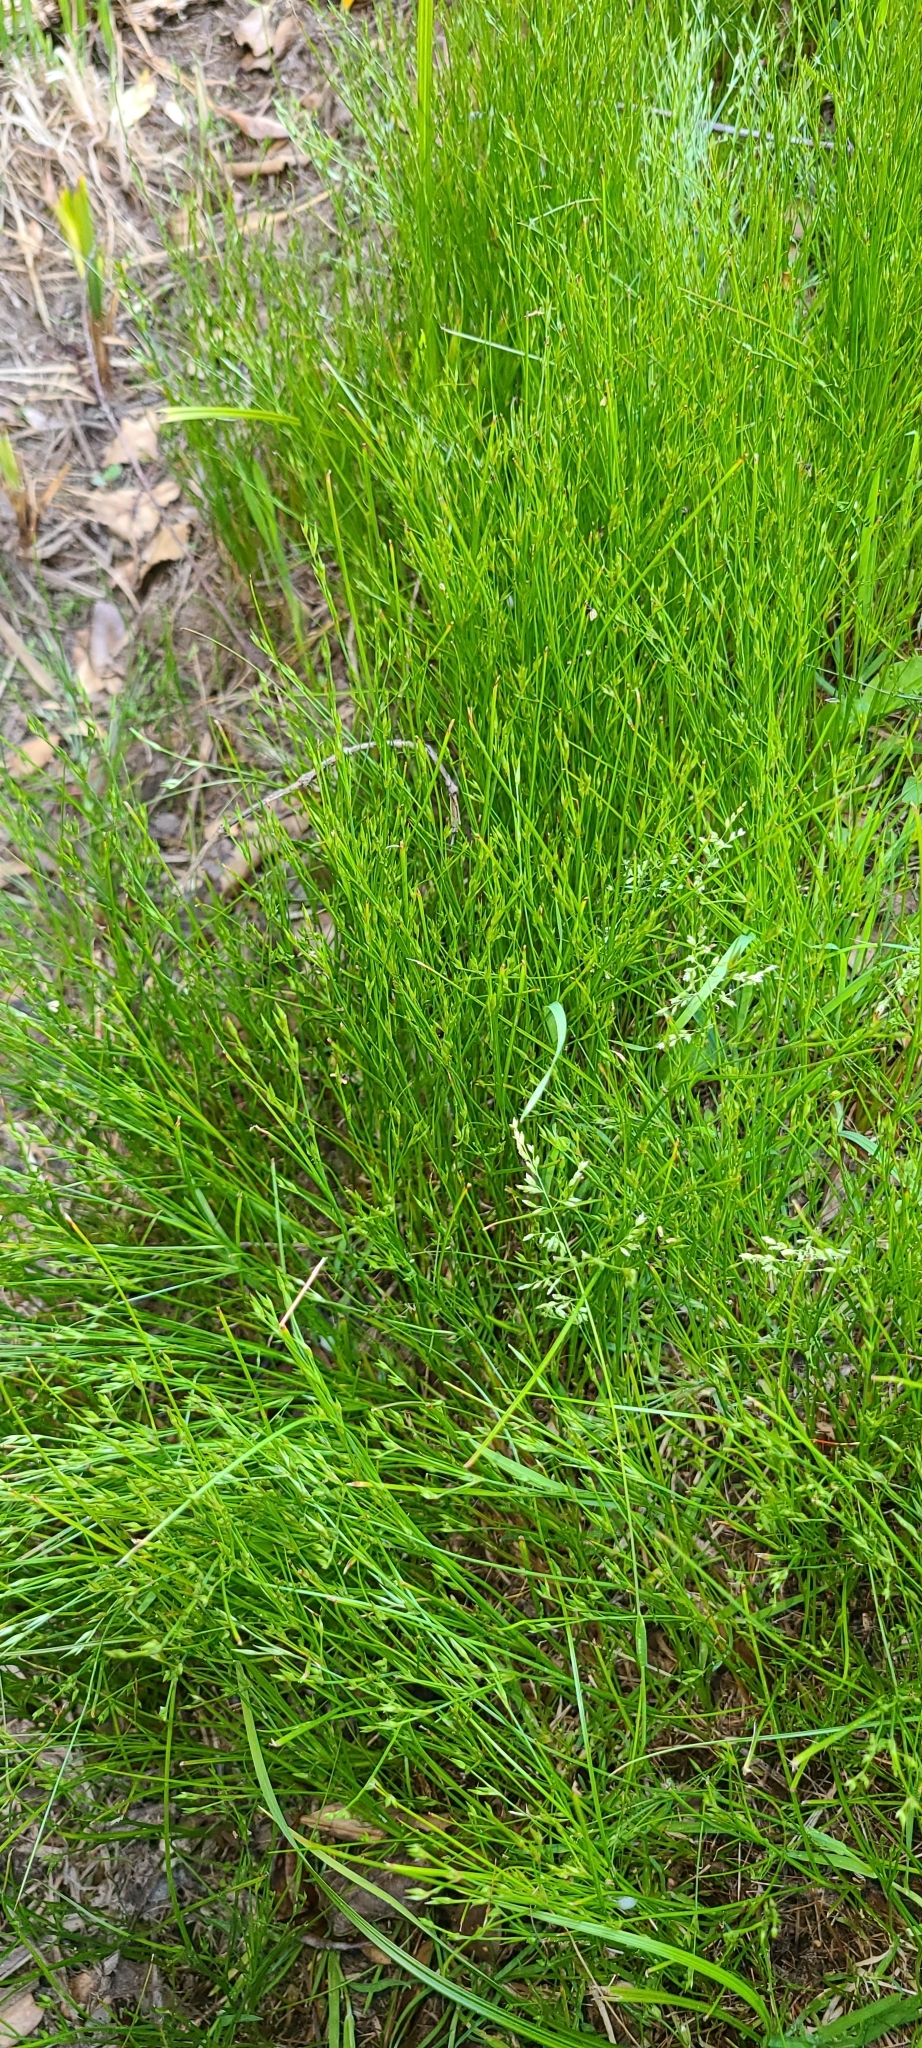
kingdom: Plantae
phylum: Tracheophyta
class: Liliopsida
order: Poales
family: Juncaceae
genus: Juncus
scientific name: Juncus bufonius
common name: Toad rush
